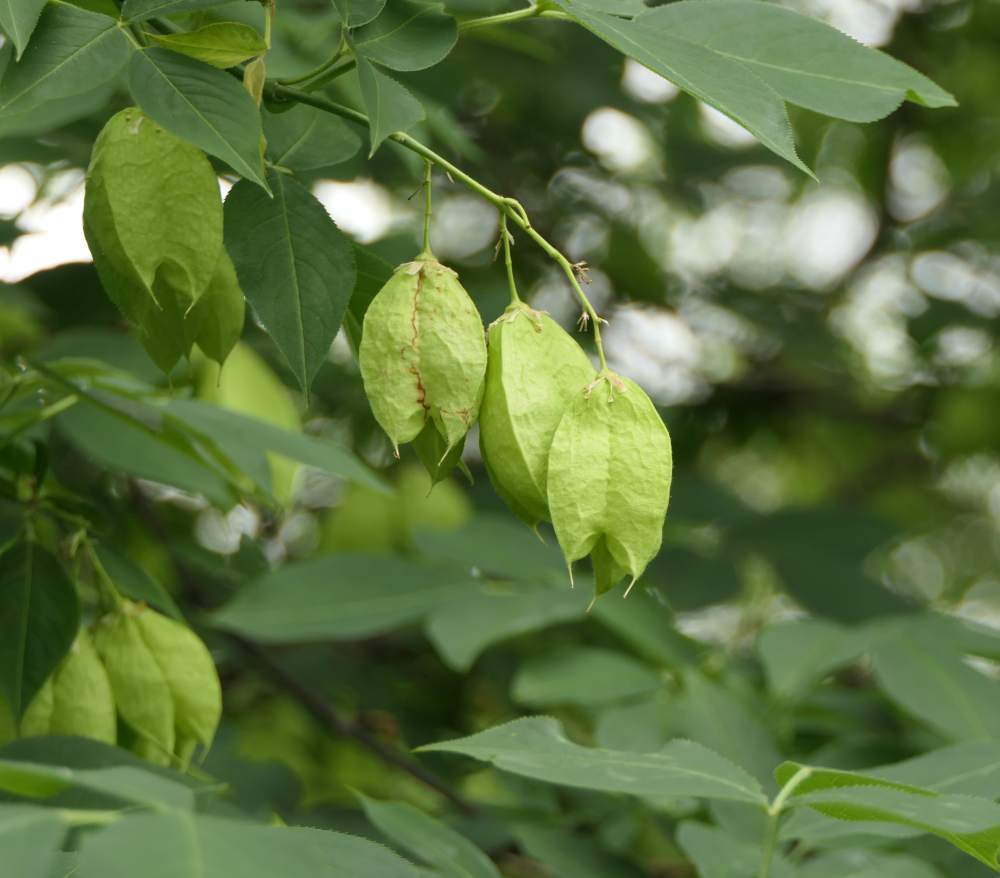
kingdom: Plantae
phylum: Tracheophyta
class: Magnoliopsida
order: Crossosomatales
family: Staphyleaceae
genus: Staphylea
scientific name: Staphylea trifolia
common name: American bladdernut
